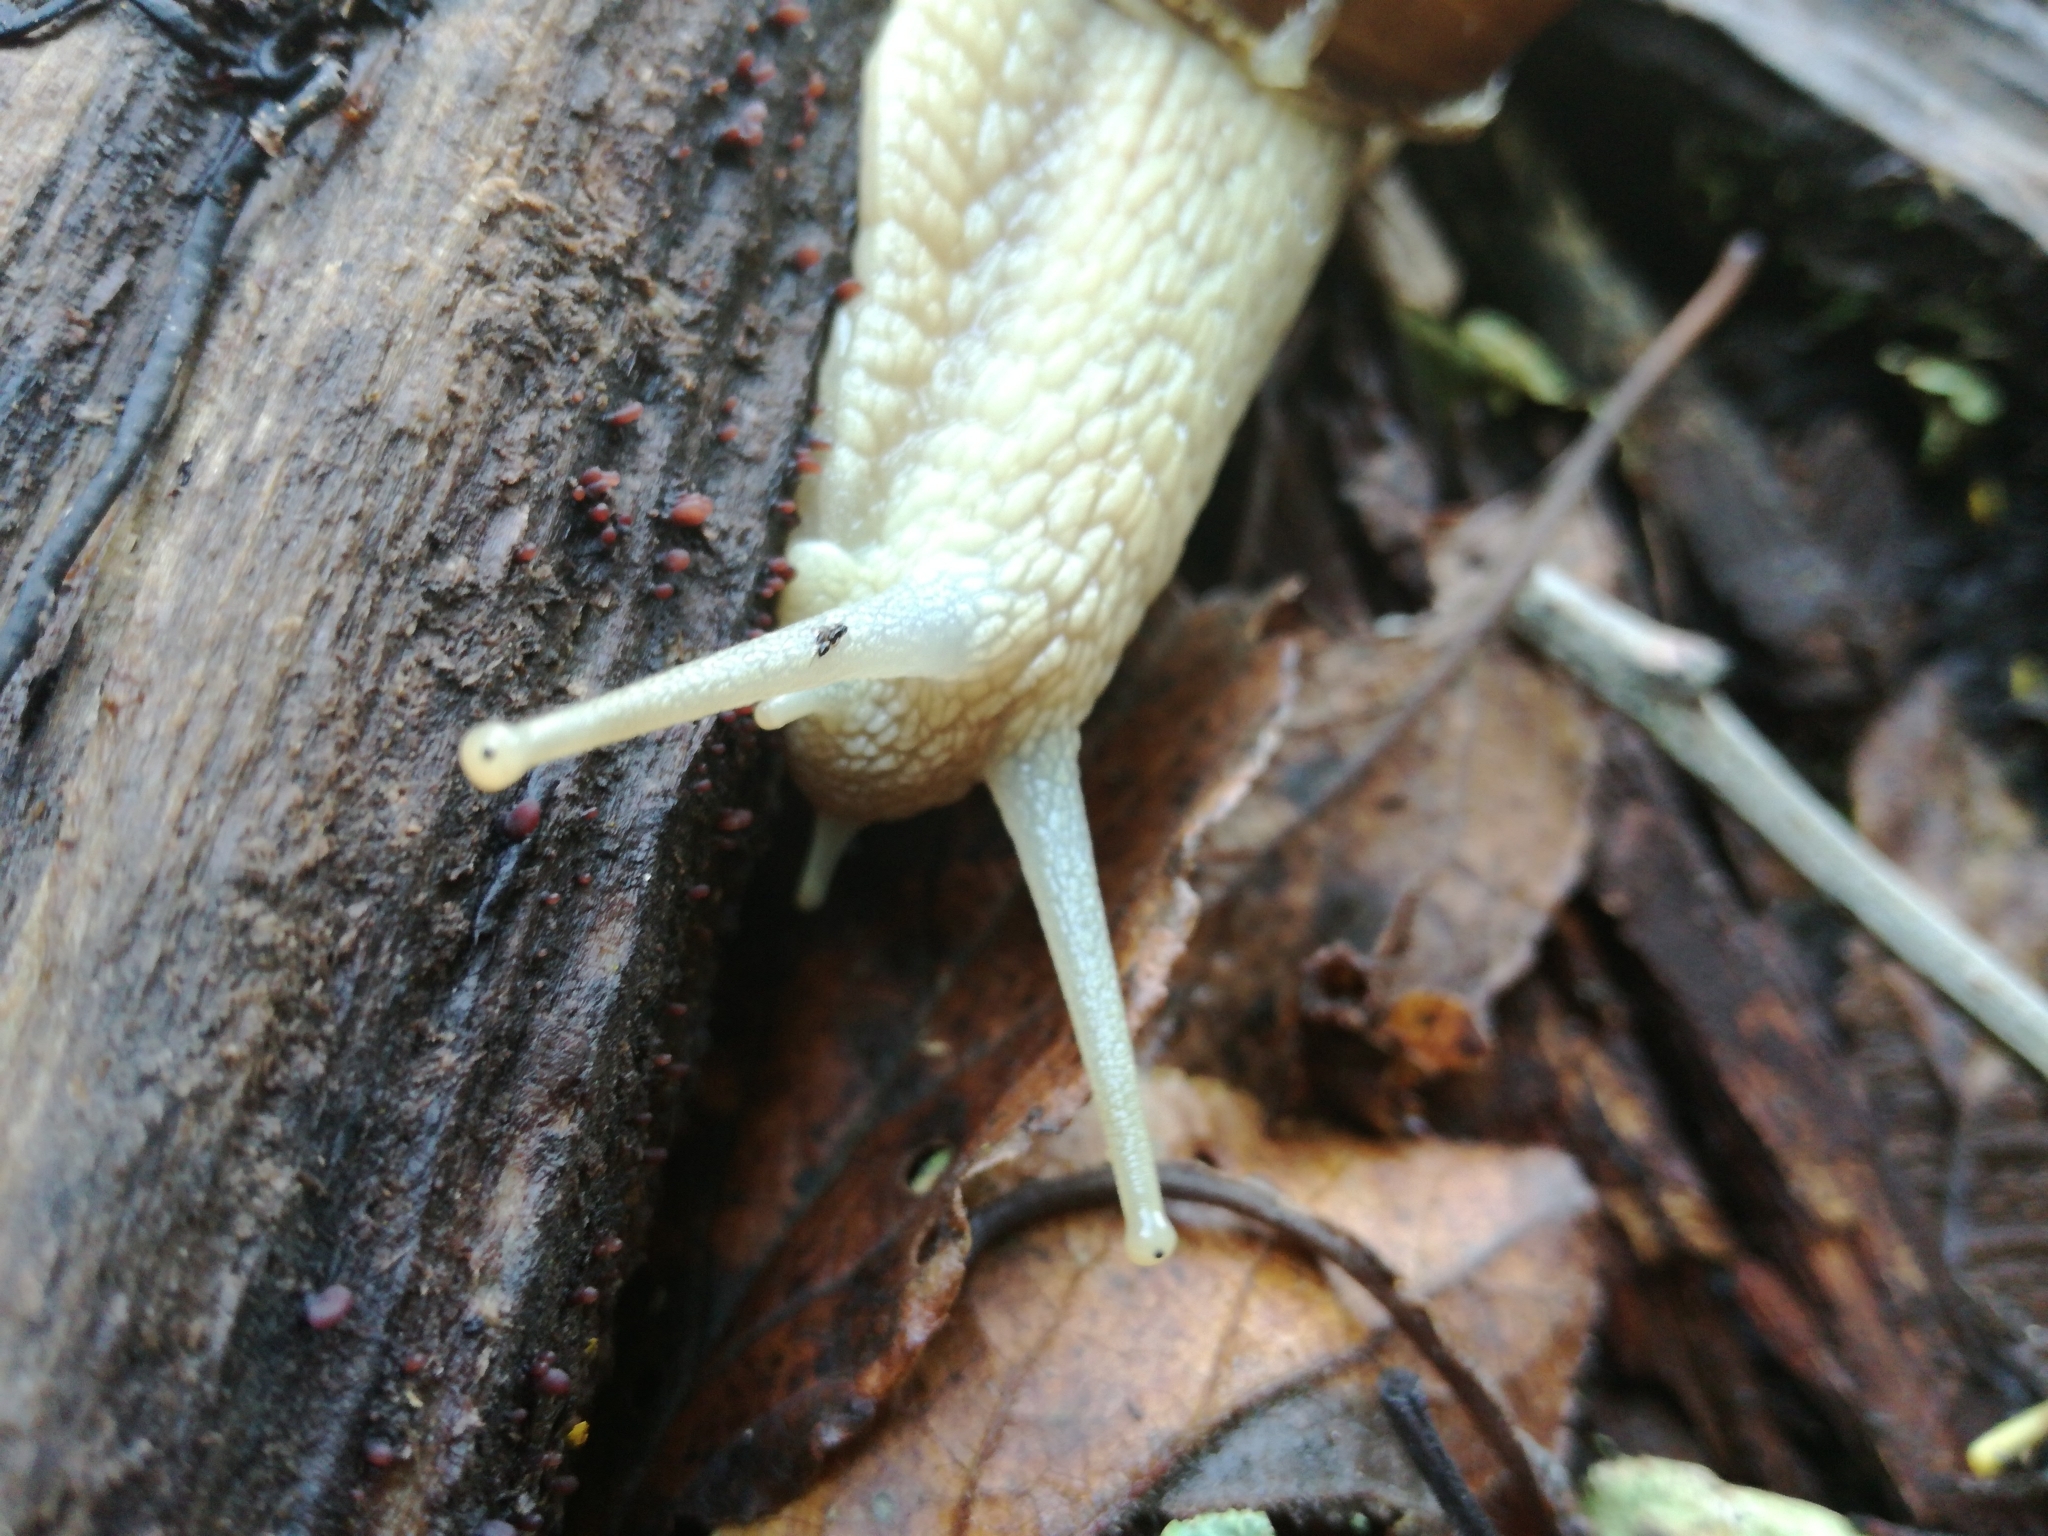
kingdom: Animalia
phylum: Mollusca
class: Gastropoda
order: Stylommatophora
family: Helicidae
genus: Helix
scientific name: Helix pomatia
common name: Roman snail
